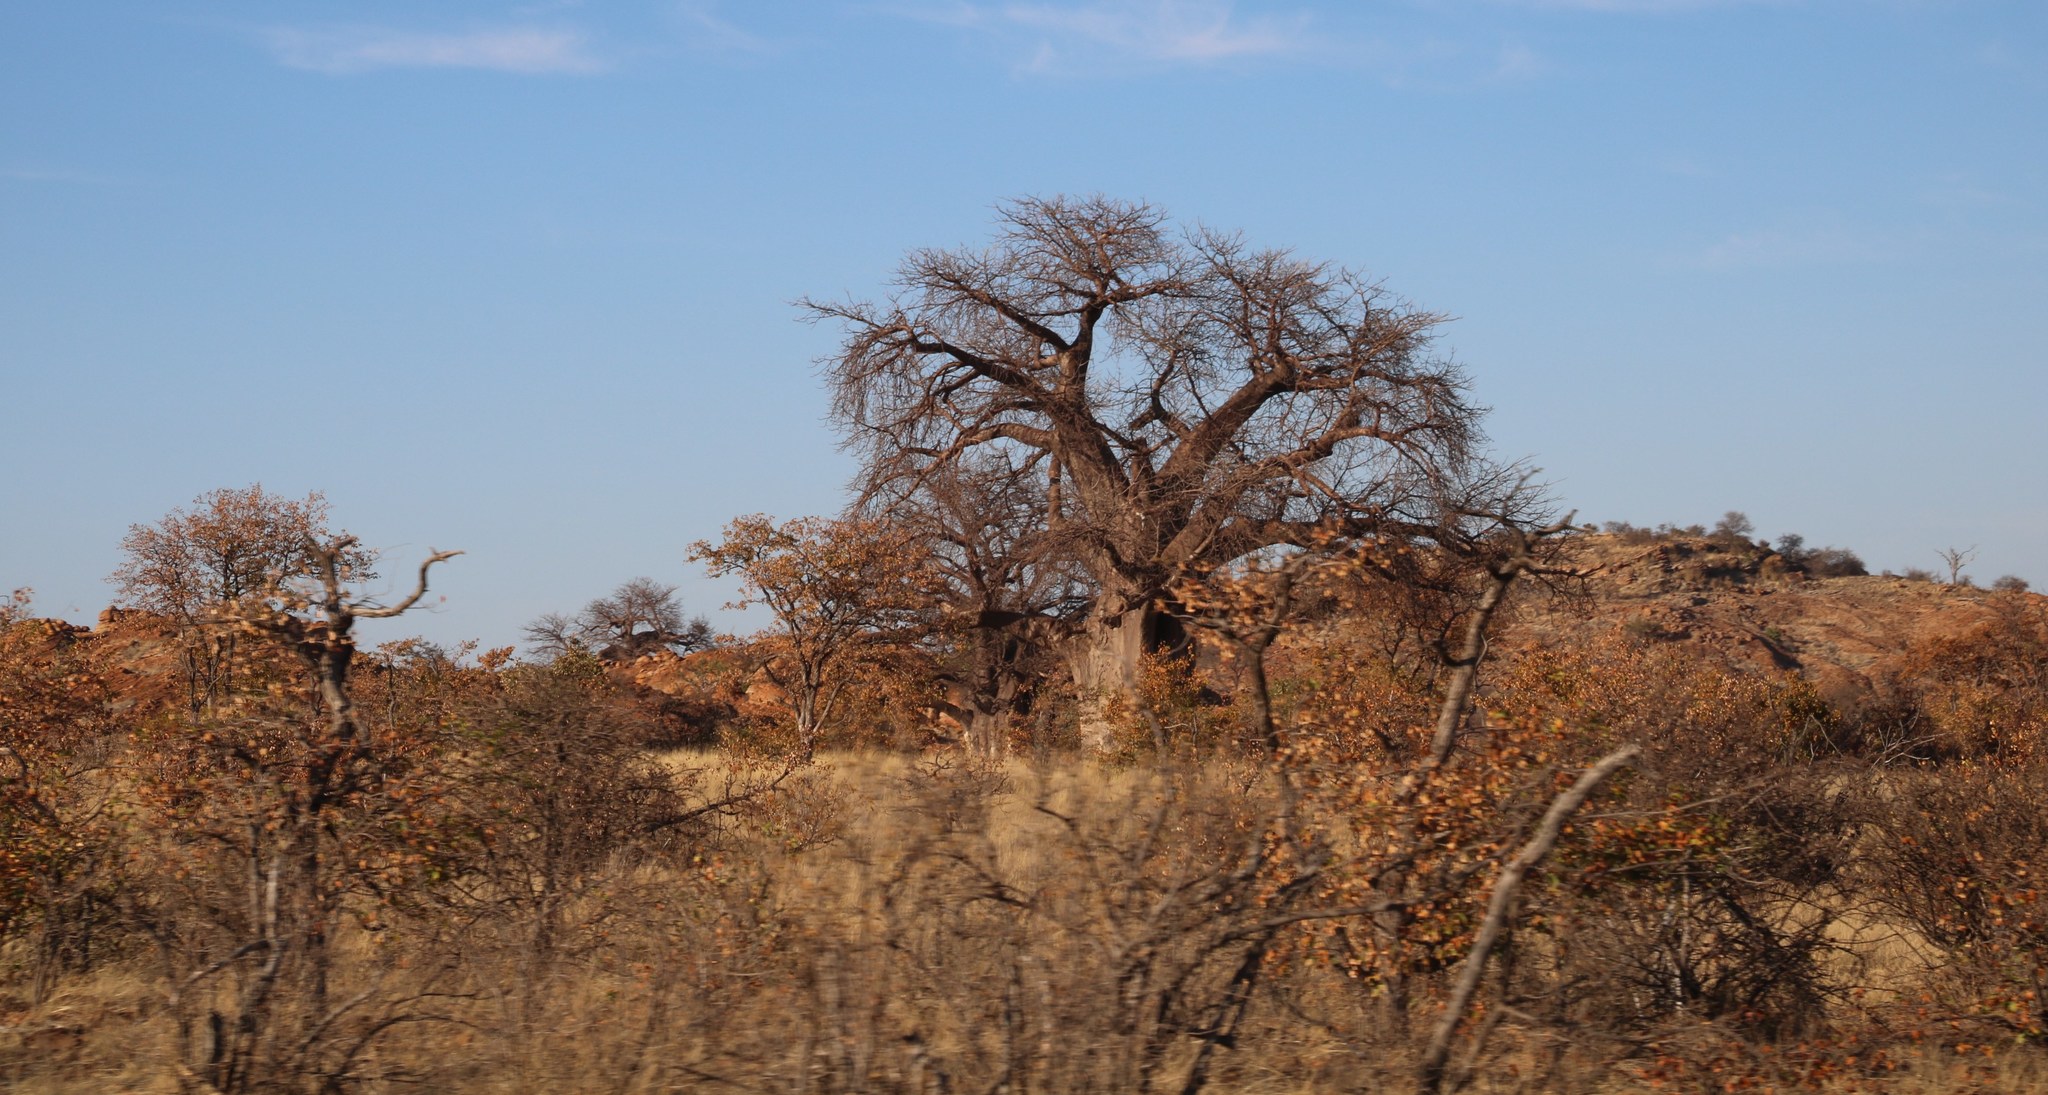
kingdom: Plantae
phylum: Tracheophyta
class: Magnoliopsida
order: Malvales
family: Malvaceae
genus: Adansonia
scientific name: Adansonia digitata
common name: Dead-rat-tree
